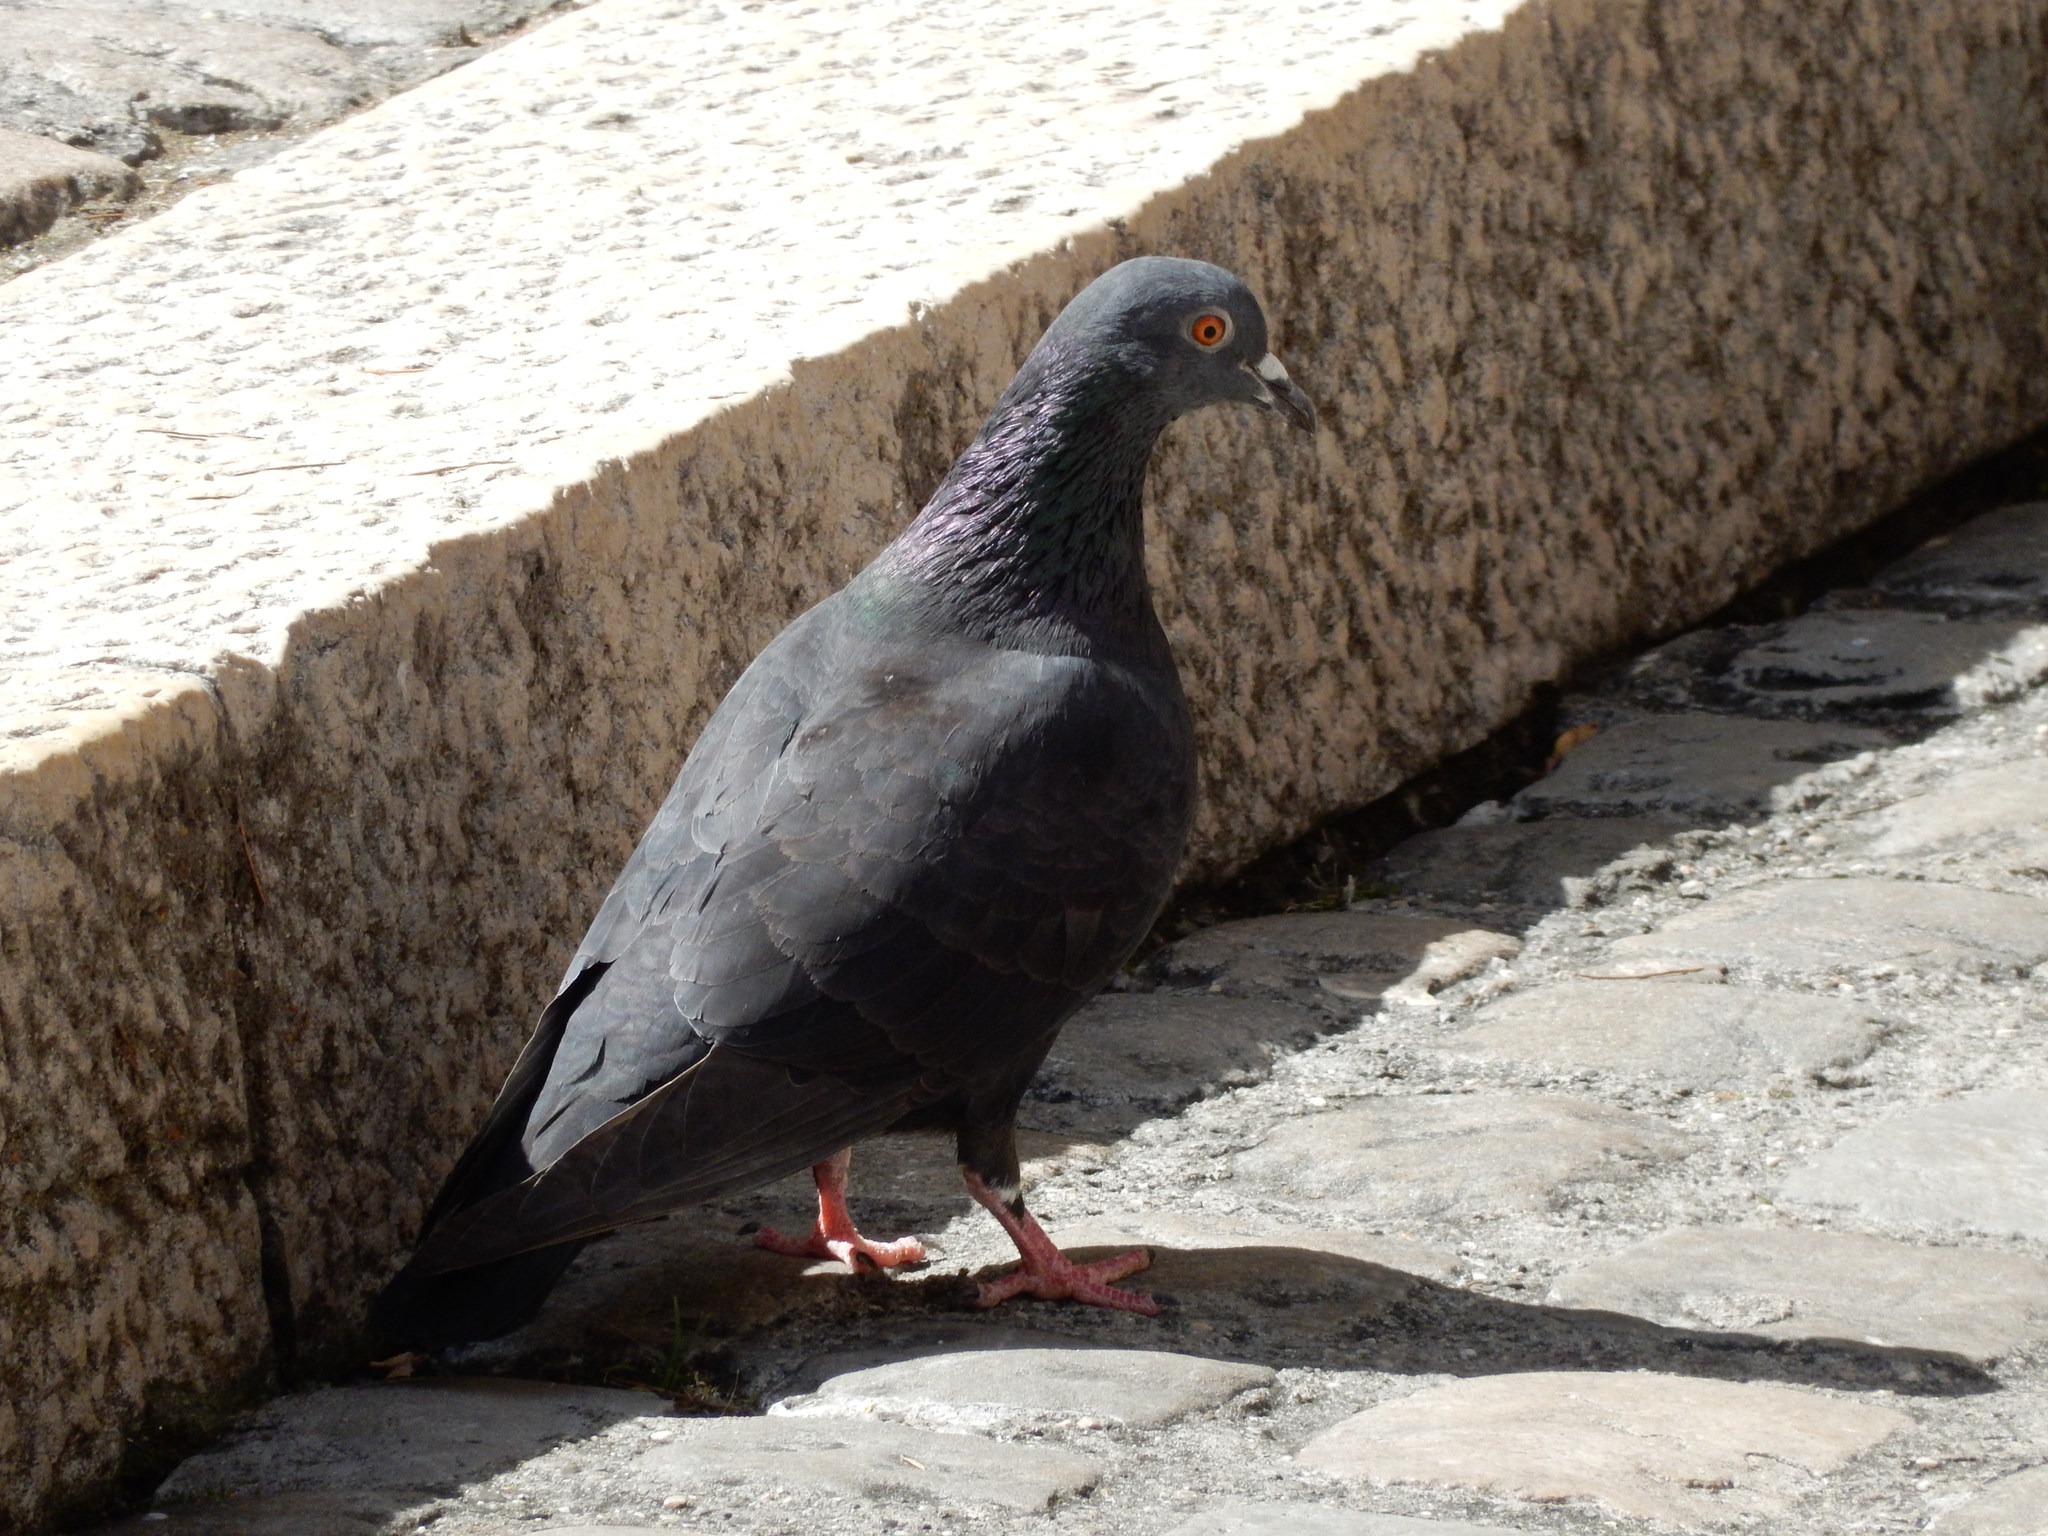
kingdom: Animalia
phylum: Chordata
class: Aves
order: Columbiformes
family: Columbidae
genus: Columba
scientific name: Columba livia
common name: Rock pigeon
